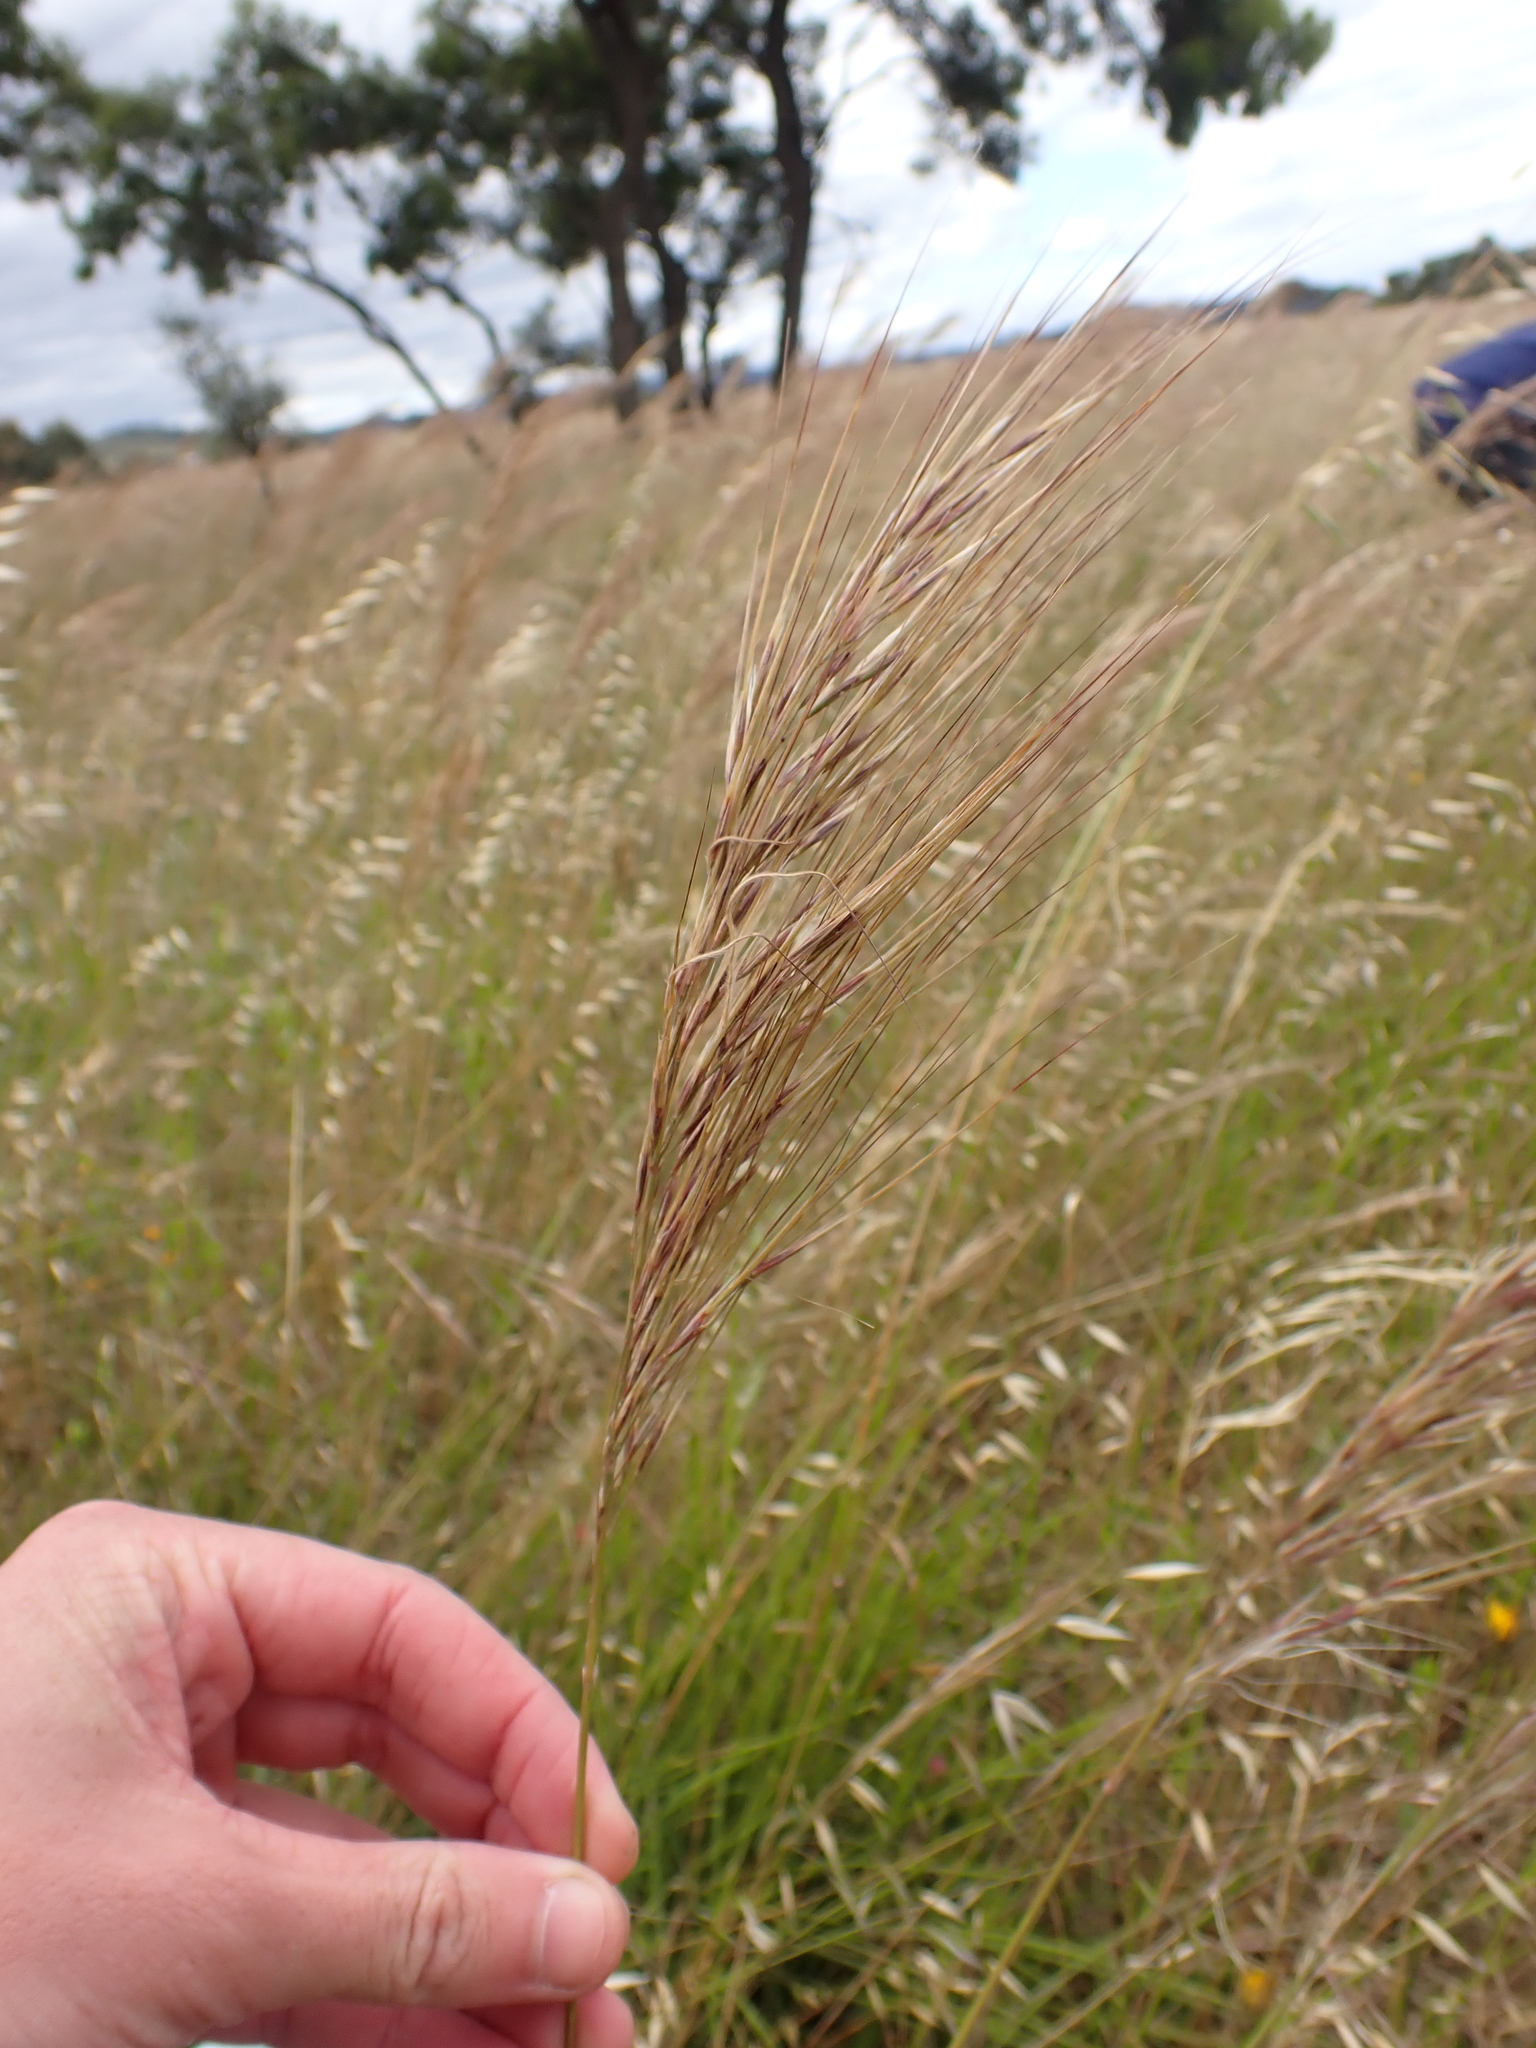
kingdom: Plantae
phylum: Tracheophyta
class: Liliopsida
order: Poales
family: Poaceae
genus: Austrostipa
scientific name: Austrostipa semibarbata
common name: Fibrous spear grass
